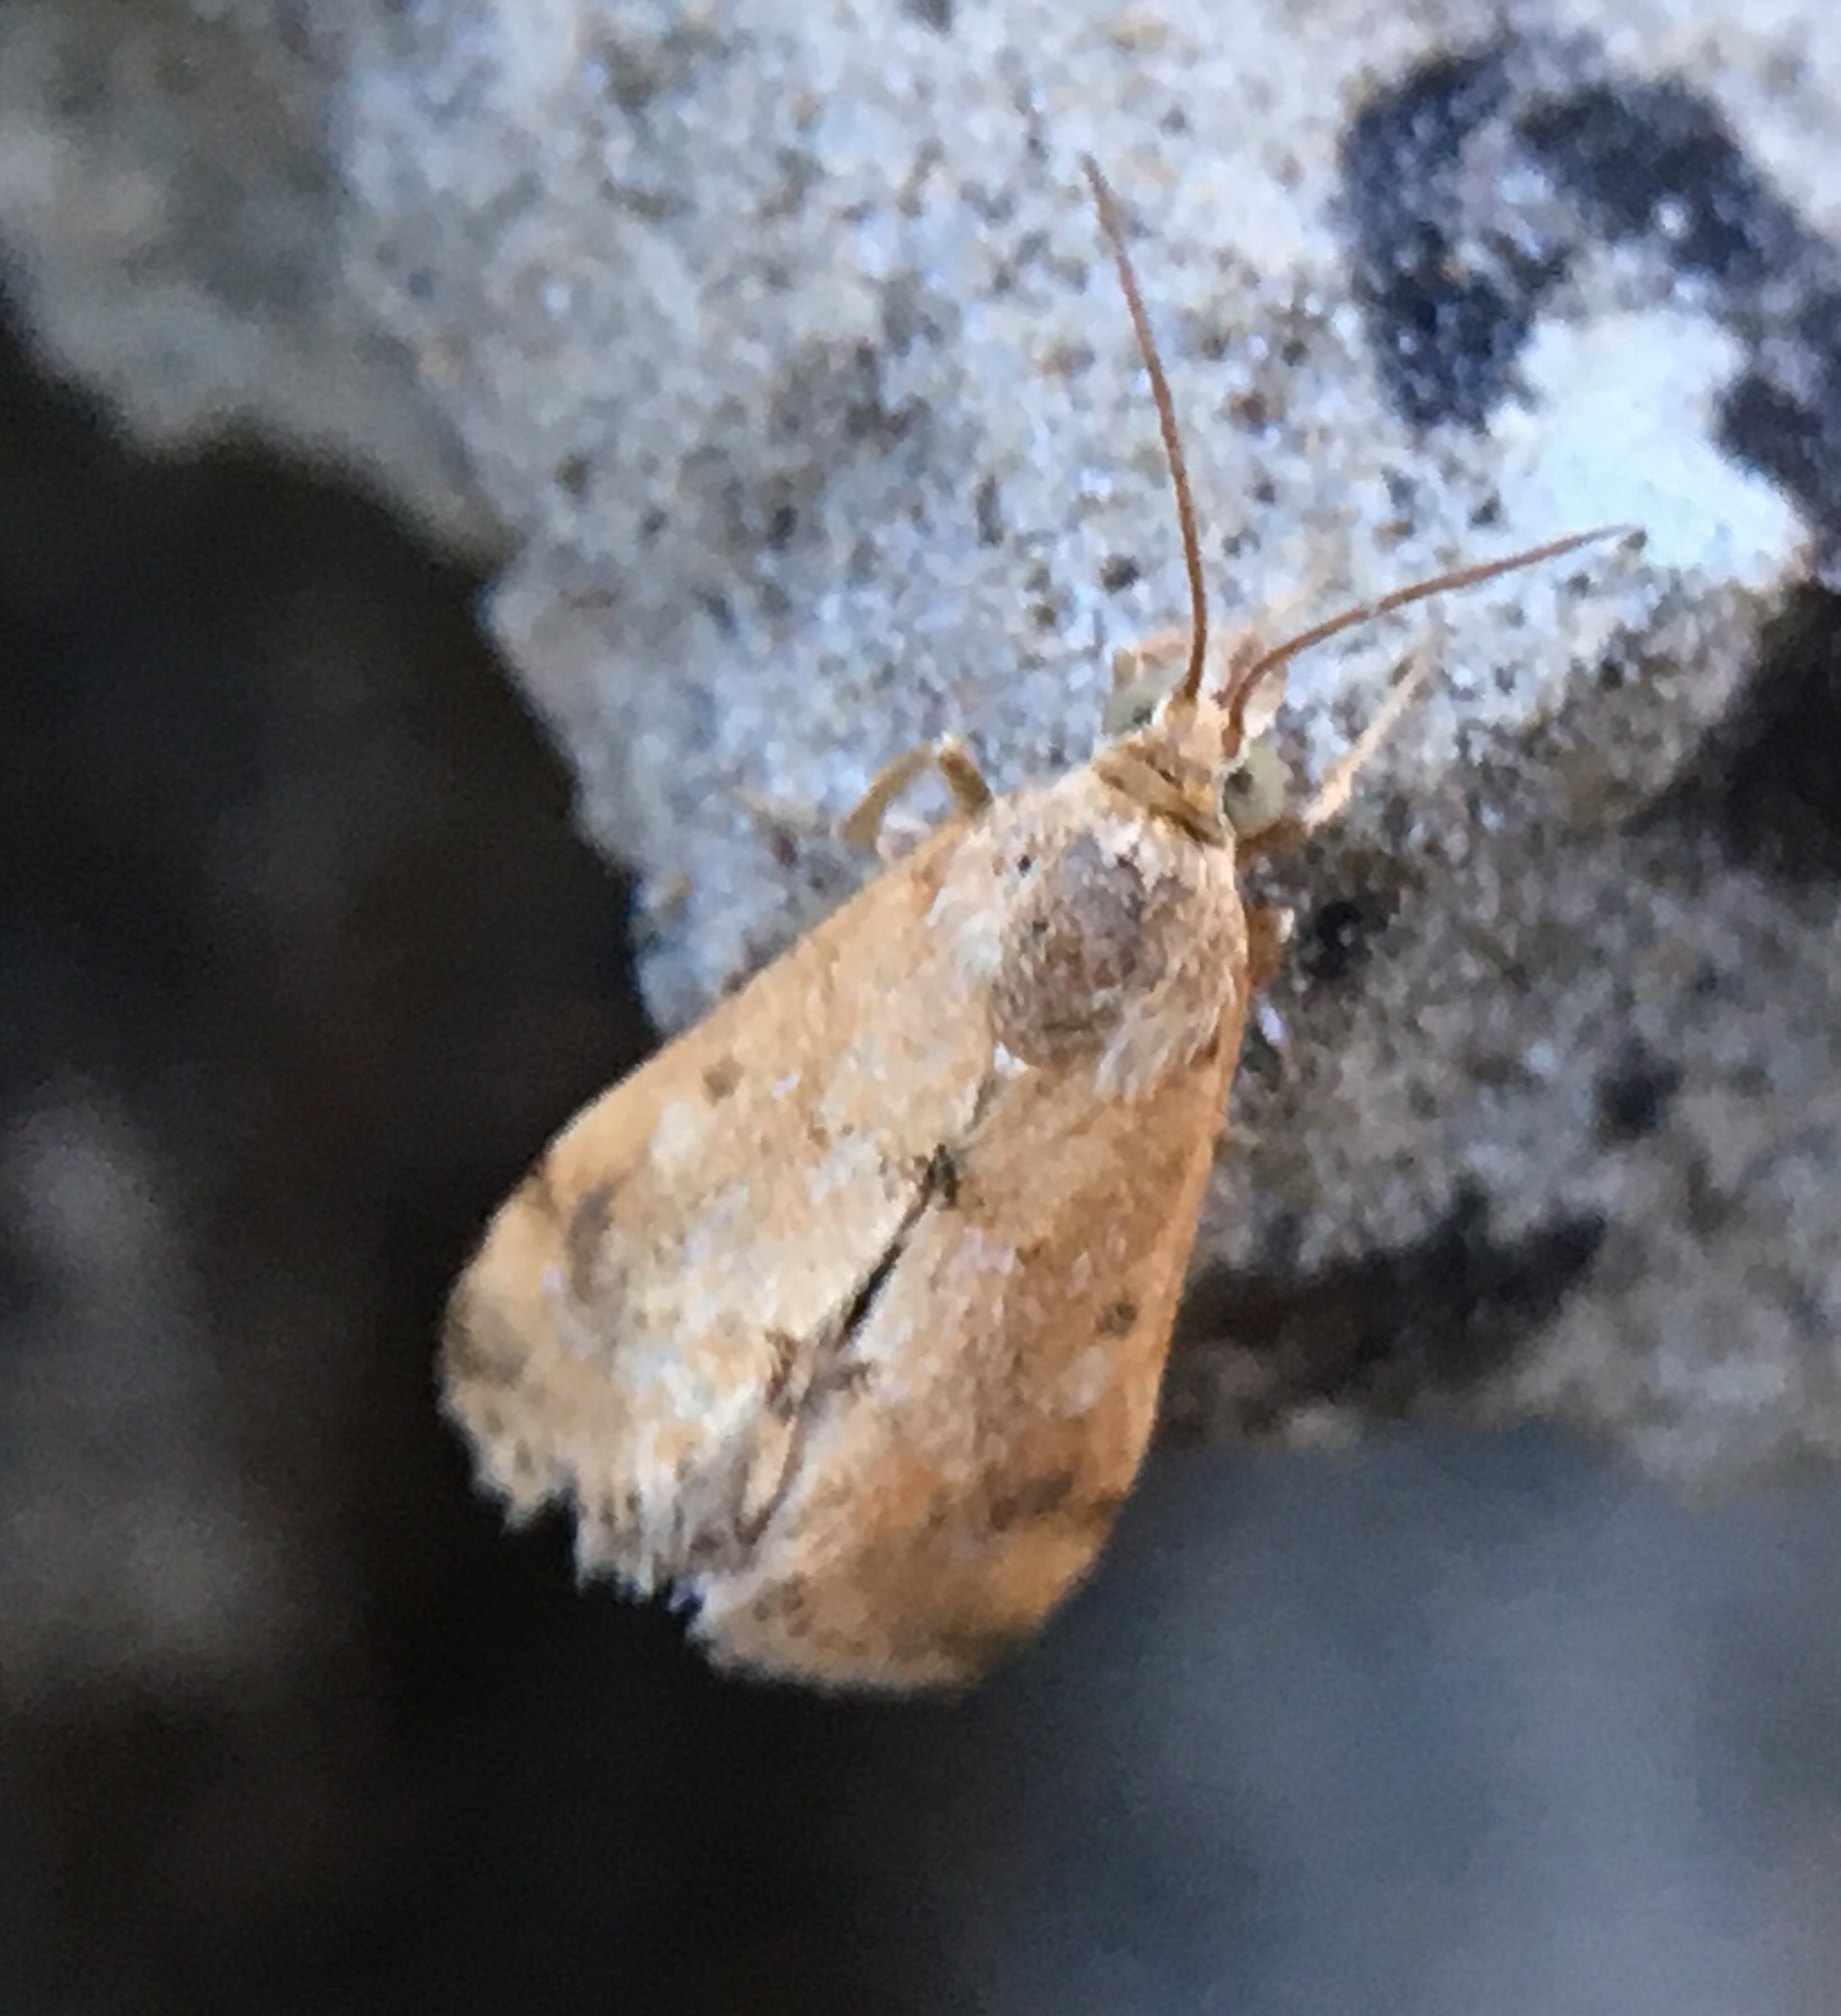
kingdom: Animalia
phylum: Arthropoda
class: Insecta
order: Lepidoptera
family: Crambidae
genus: Tegostoma
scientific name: Tegostoma comparalis
